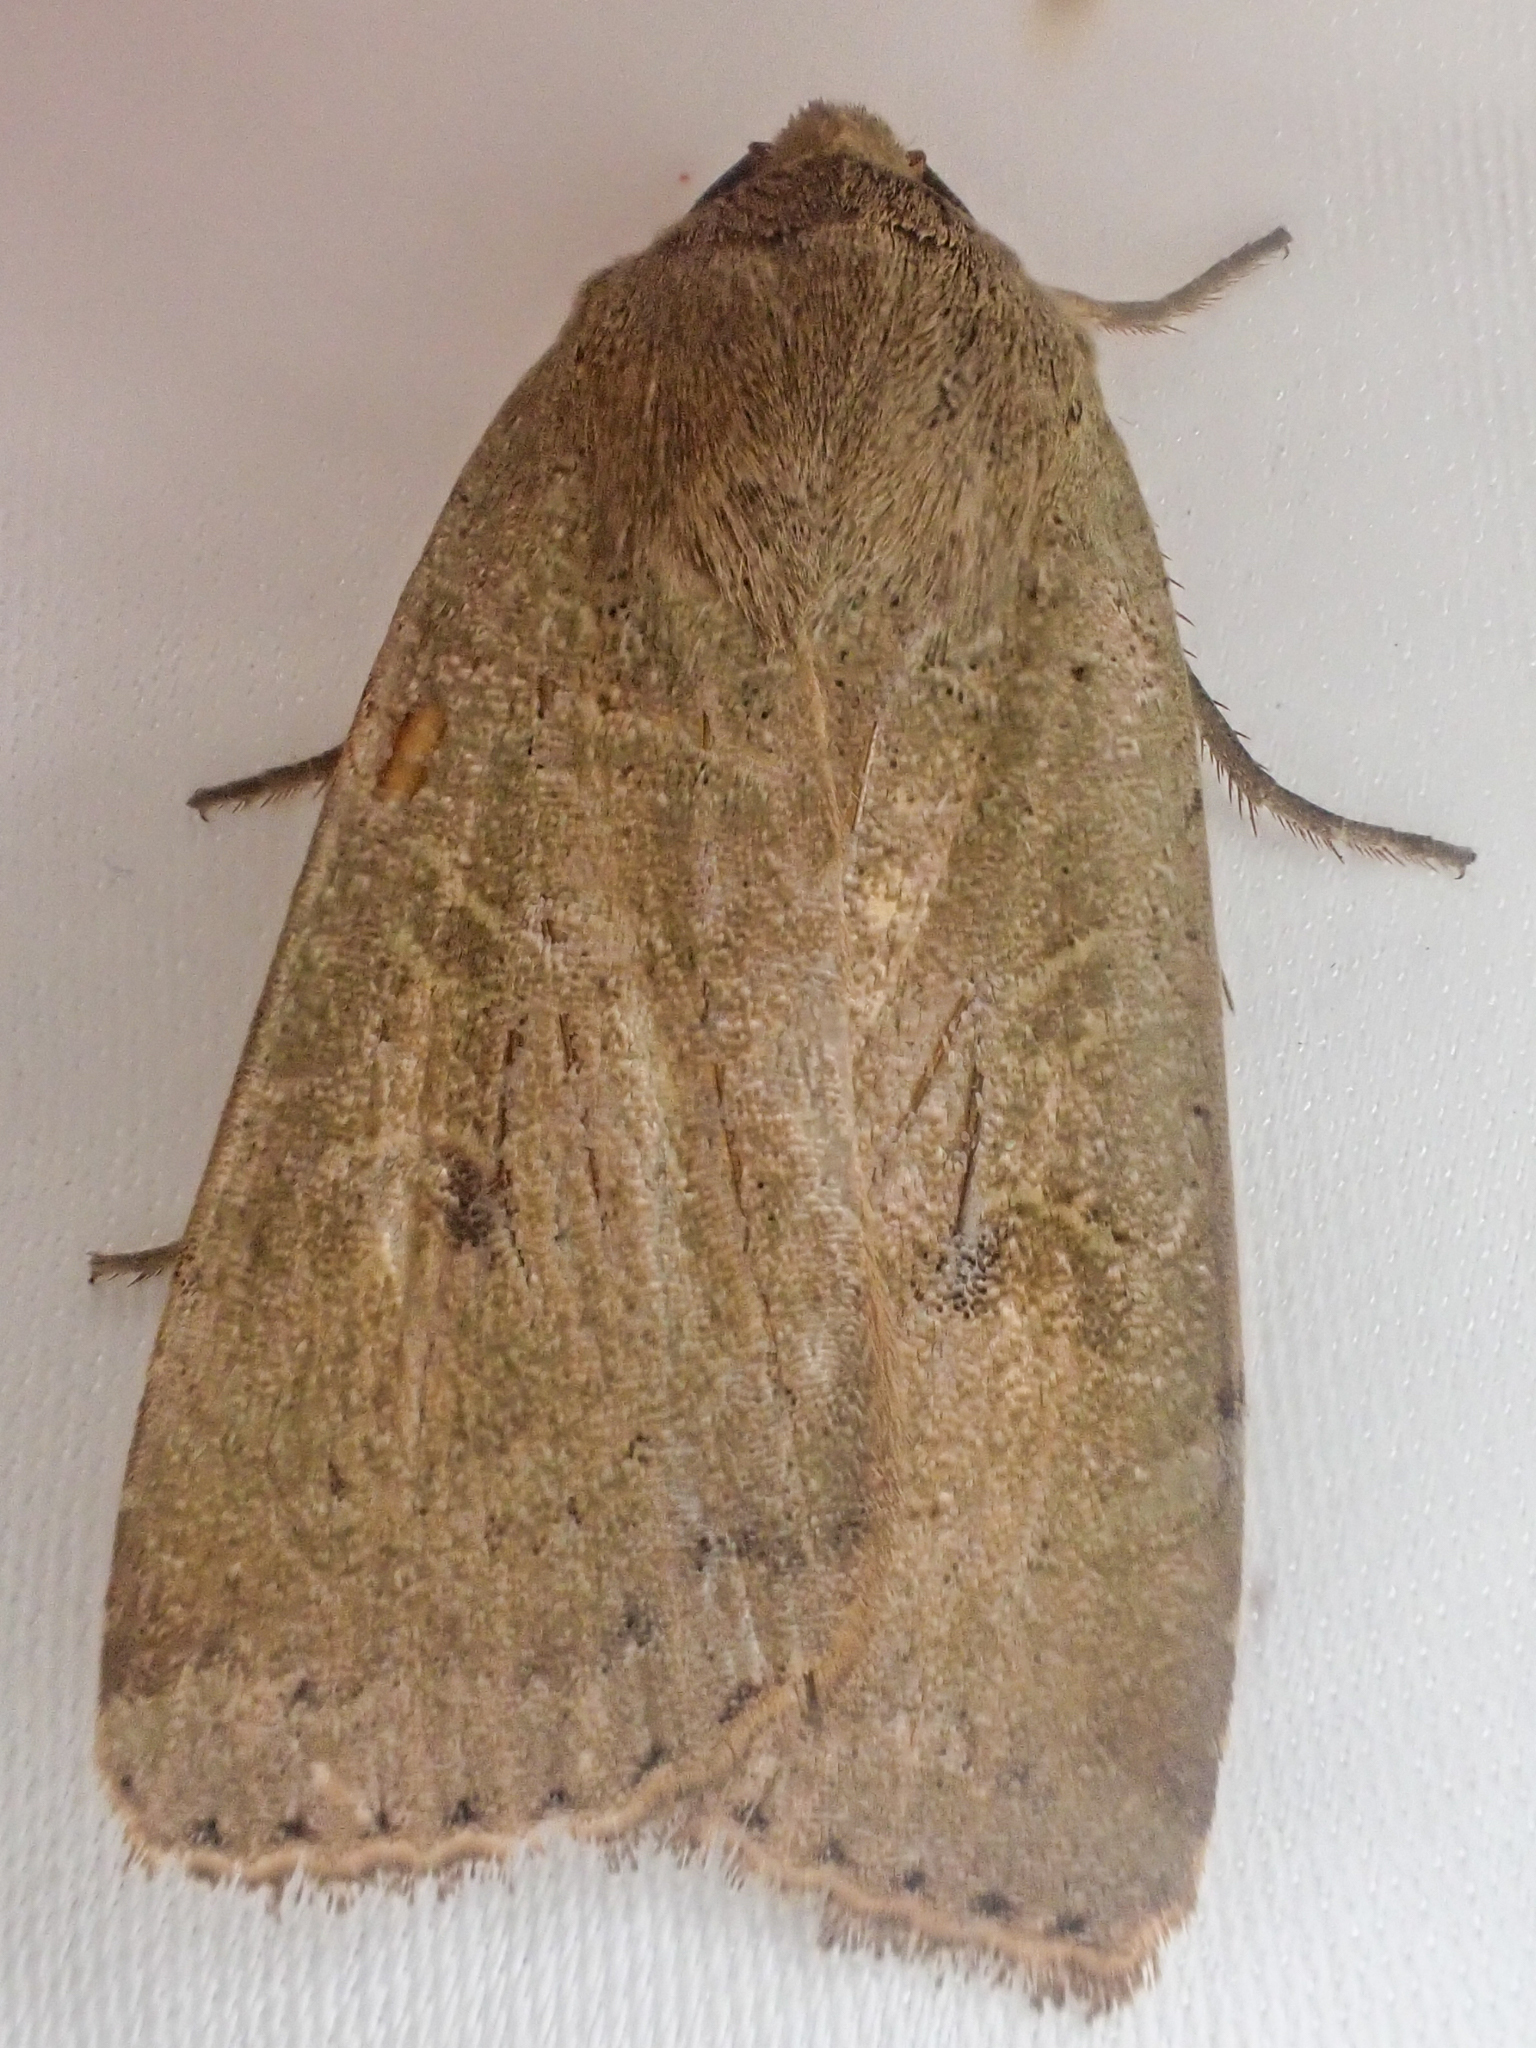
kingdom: Animalia
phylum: Arthropoda
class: Insecta
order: Lepidoptera
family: Noctuidae
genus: Noctua
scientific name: Noctua comes
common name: Lesser yellow underwing
